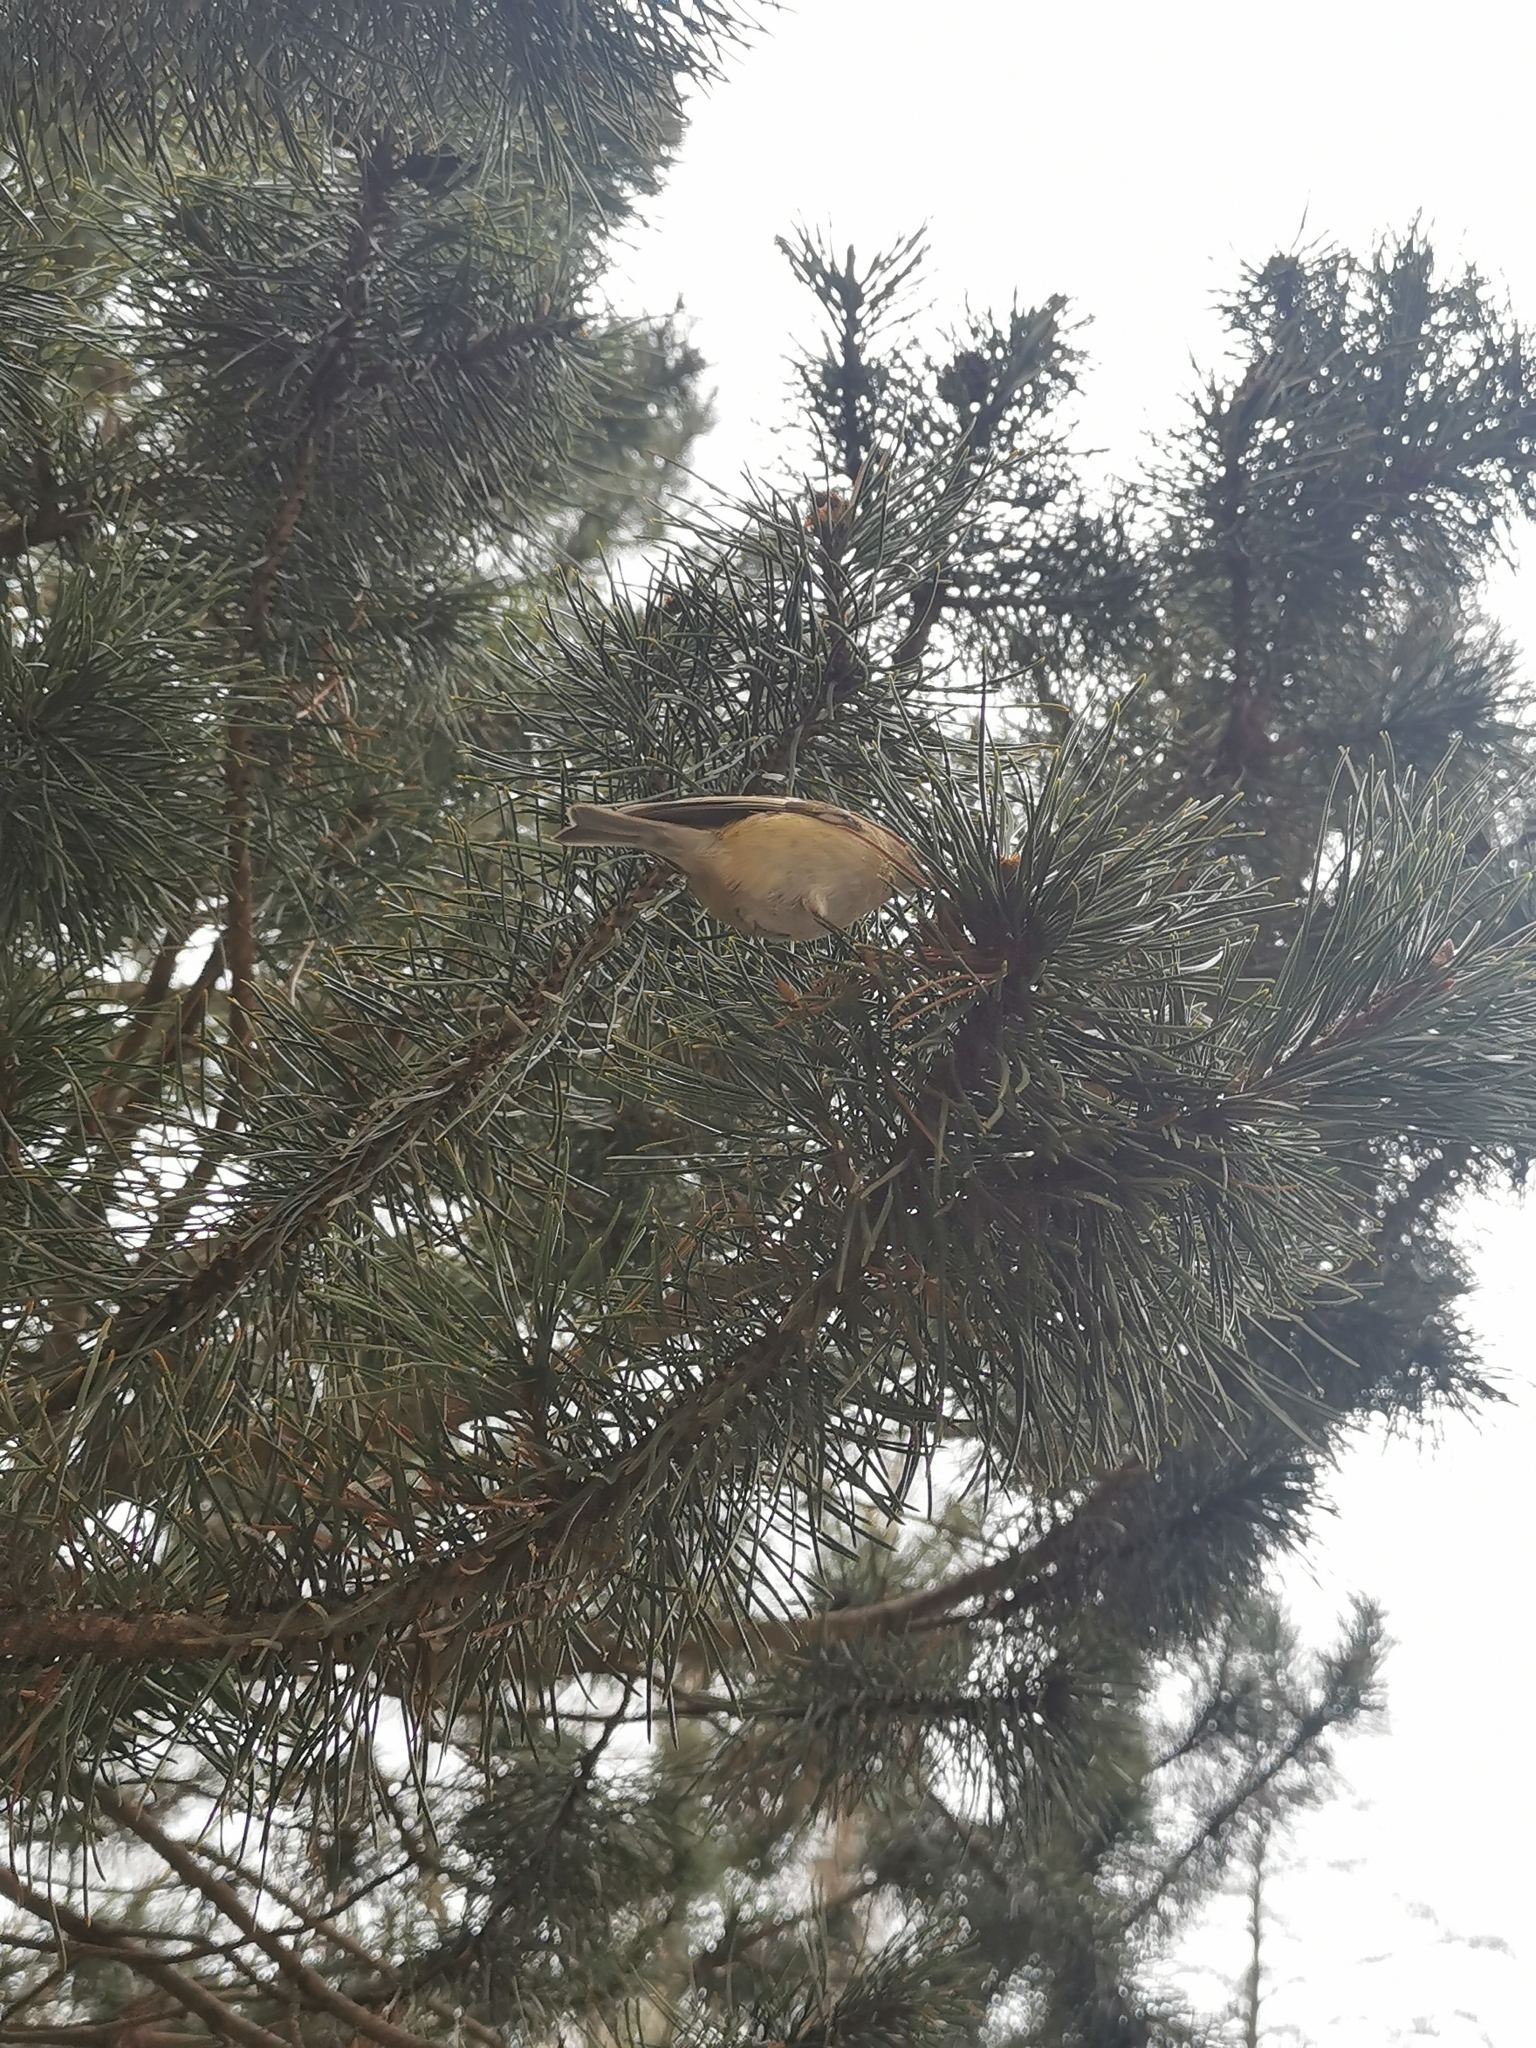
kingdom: Animalia
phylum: Chordata
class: Aves
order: Passeriformes
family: Regulidae
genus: Regulus
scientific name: Regulus regulus
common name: Goldcrest
